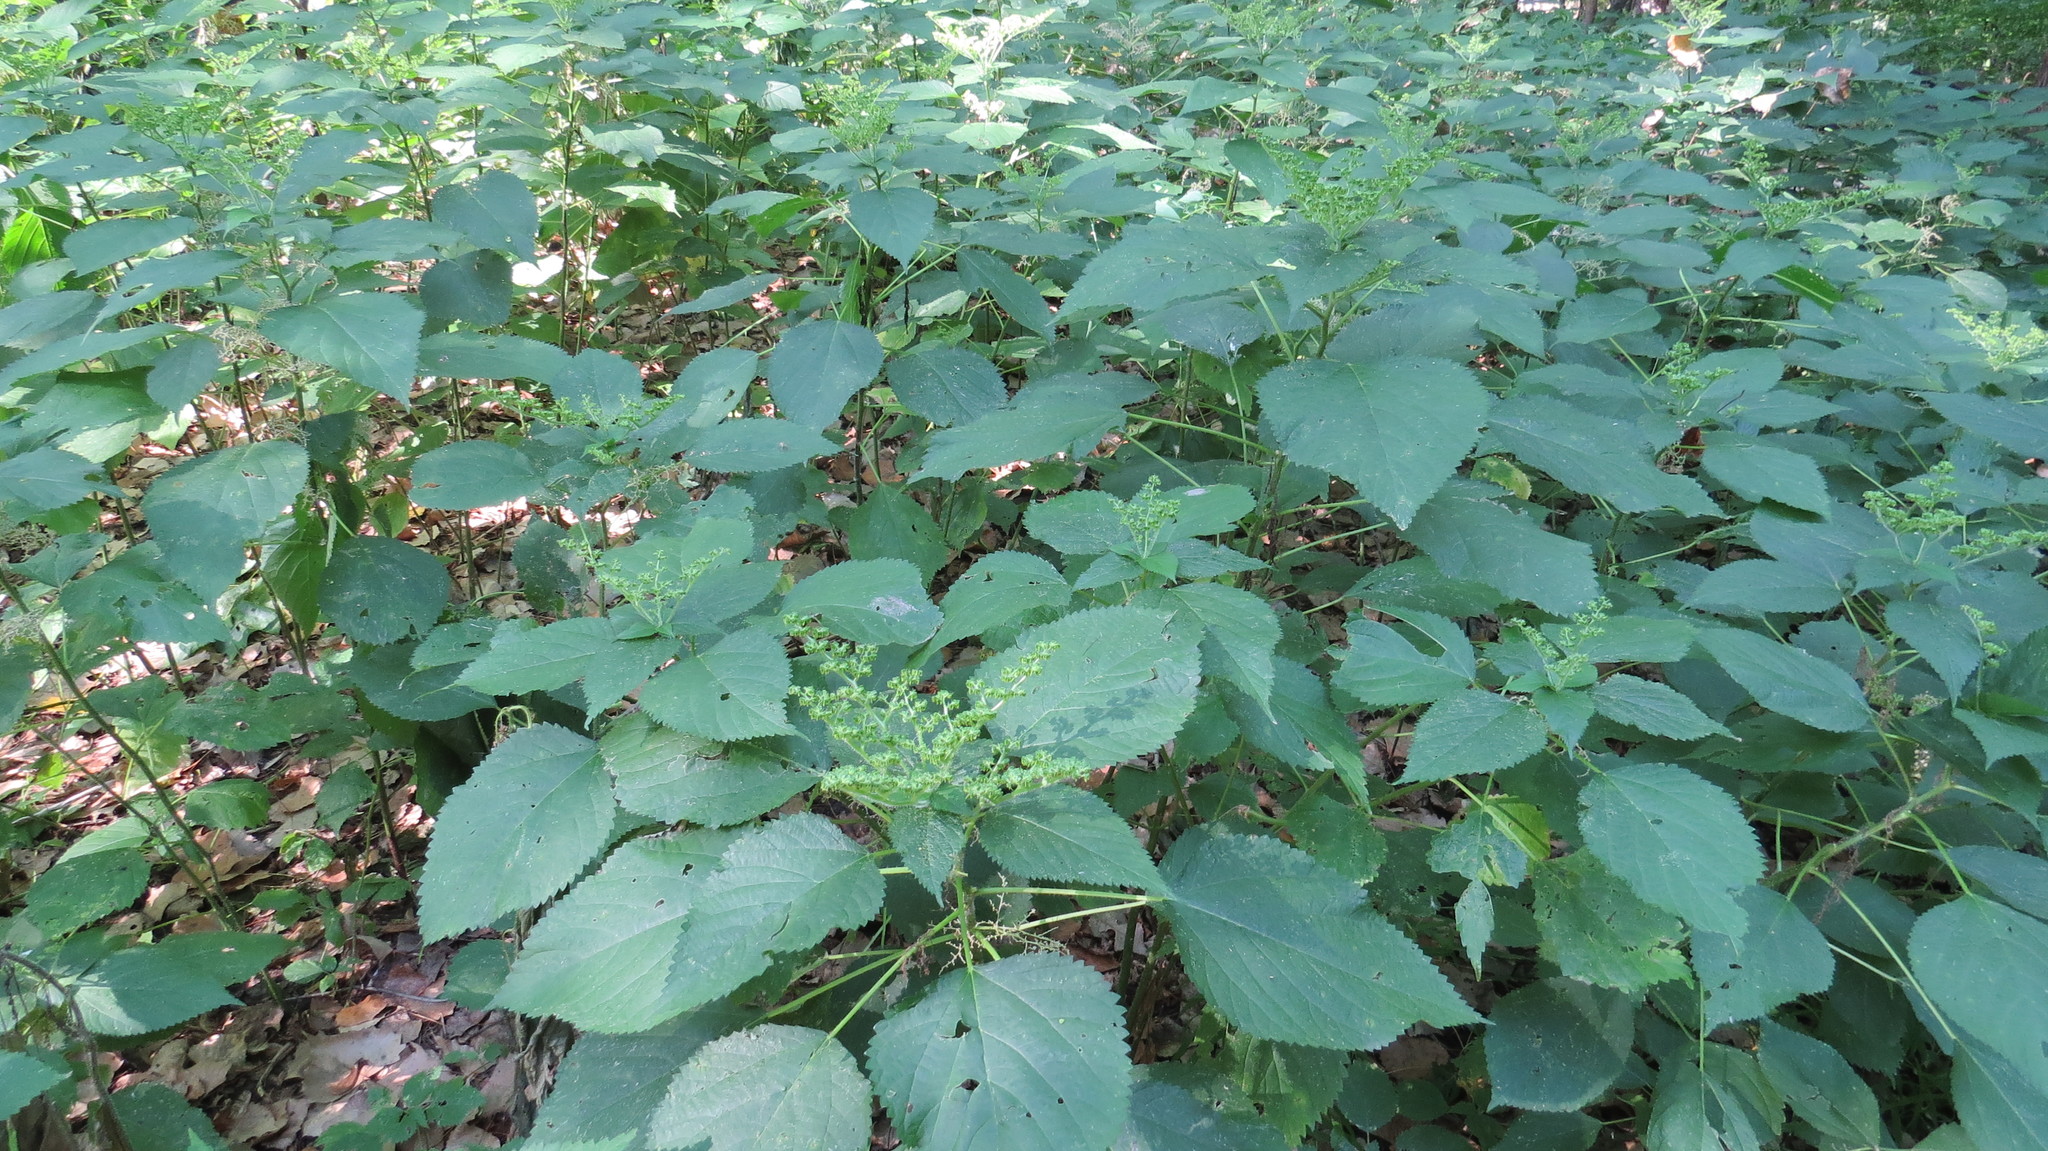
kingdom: Plantae
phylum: Tracheophyta
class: Magnoliopsida
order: Rosales
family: Urticaceae
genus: Laportea
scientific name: Laportea canadensis
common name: Canada nettle
